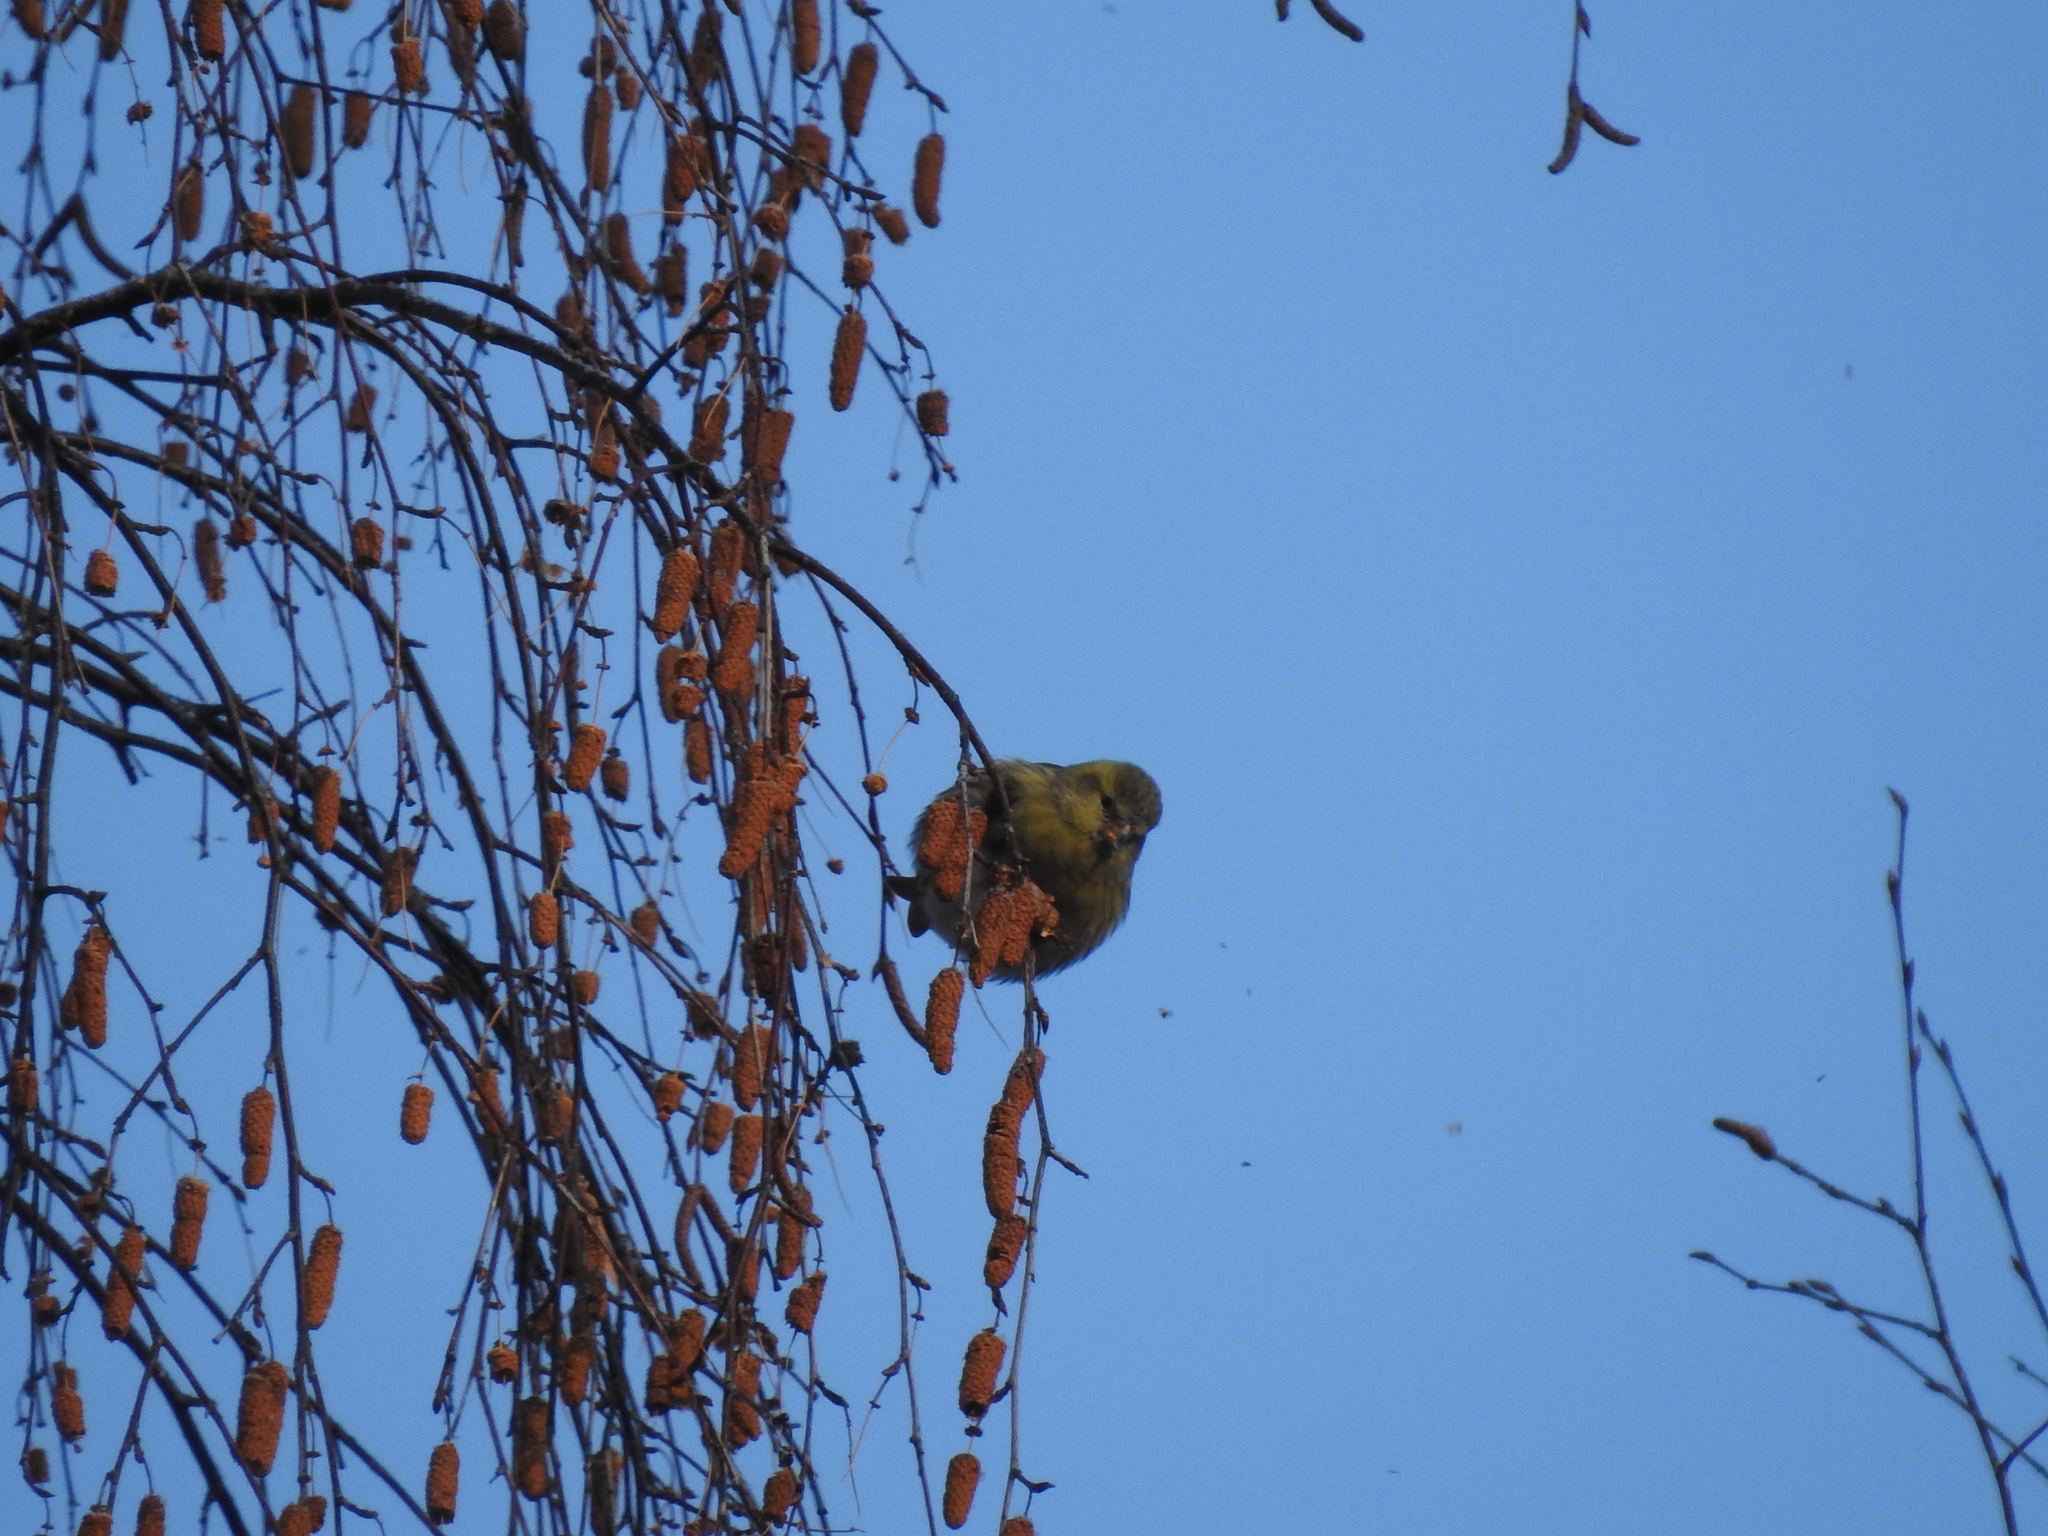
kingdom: Animalia
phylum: Chordata
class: Aves
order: Passeriformes
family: Fringillidae
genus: Spinus
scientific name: Spinus spinus
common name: Eurasian siskin
